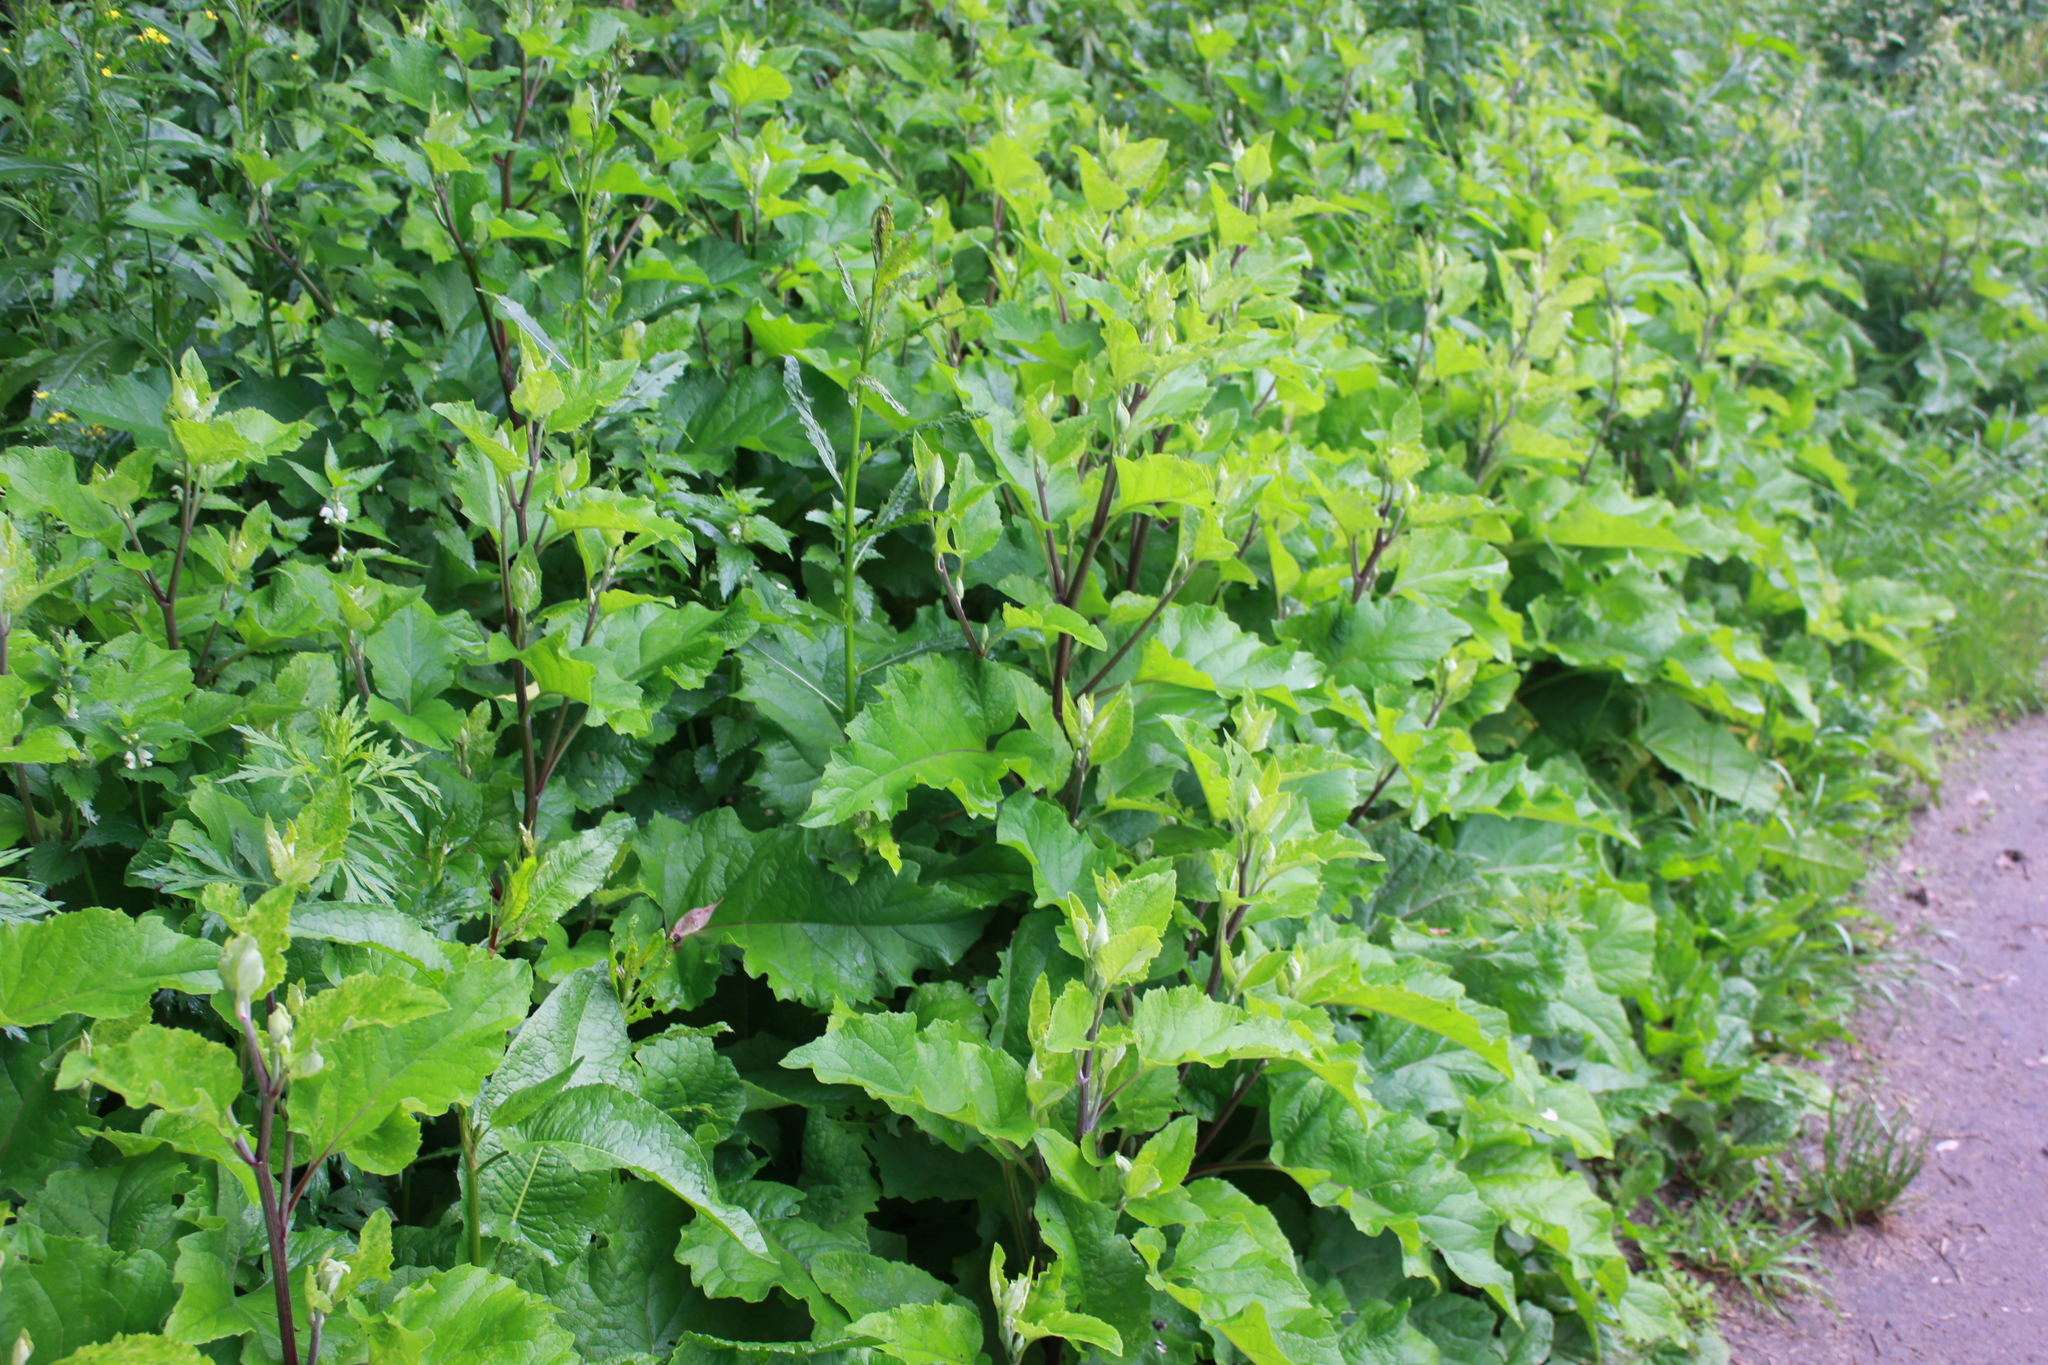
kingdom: Plantae
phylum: Tracheophyta
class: Magnoliopsida
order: Asterales
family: Asteraceae
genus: Arctium
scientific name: Arctium lappa
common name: Greater burdock
